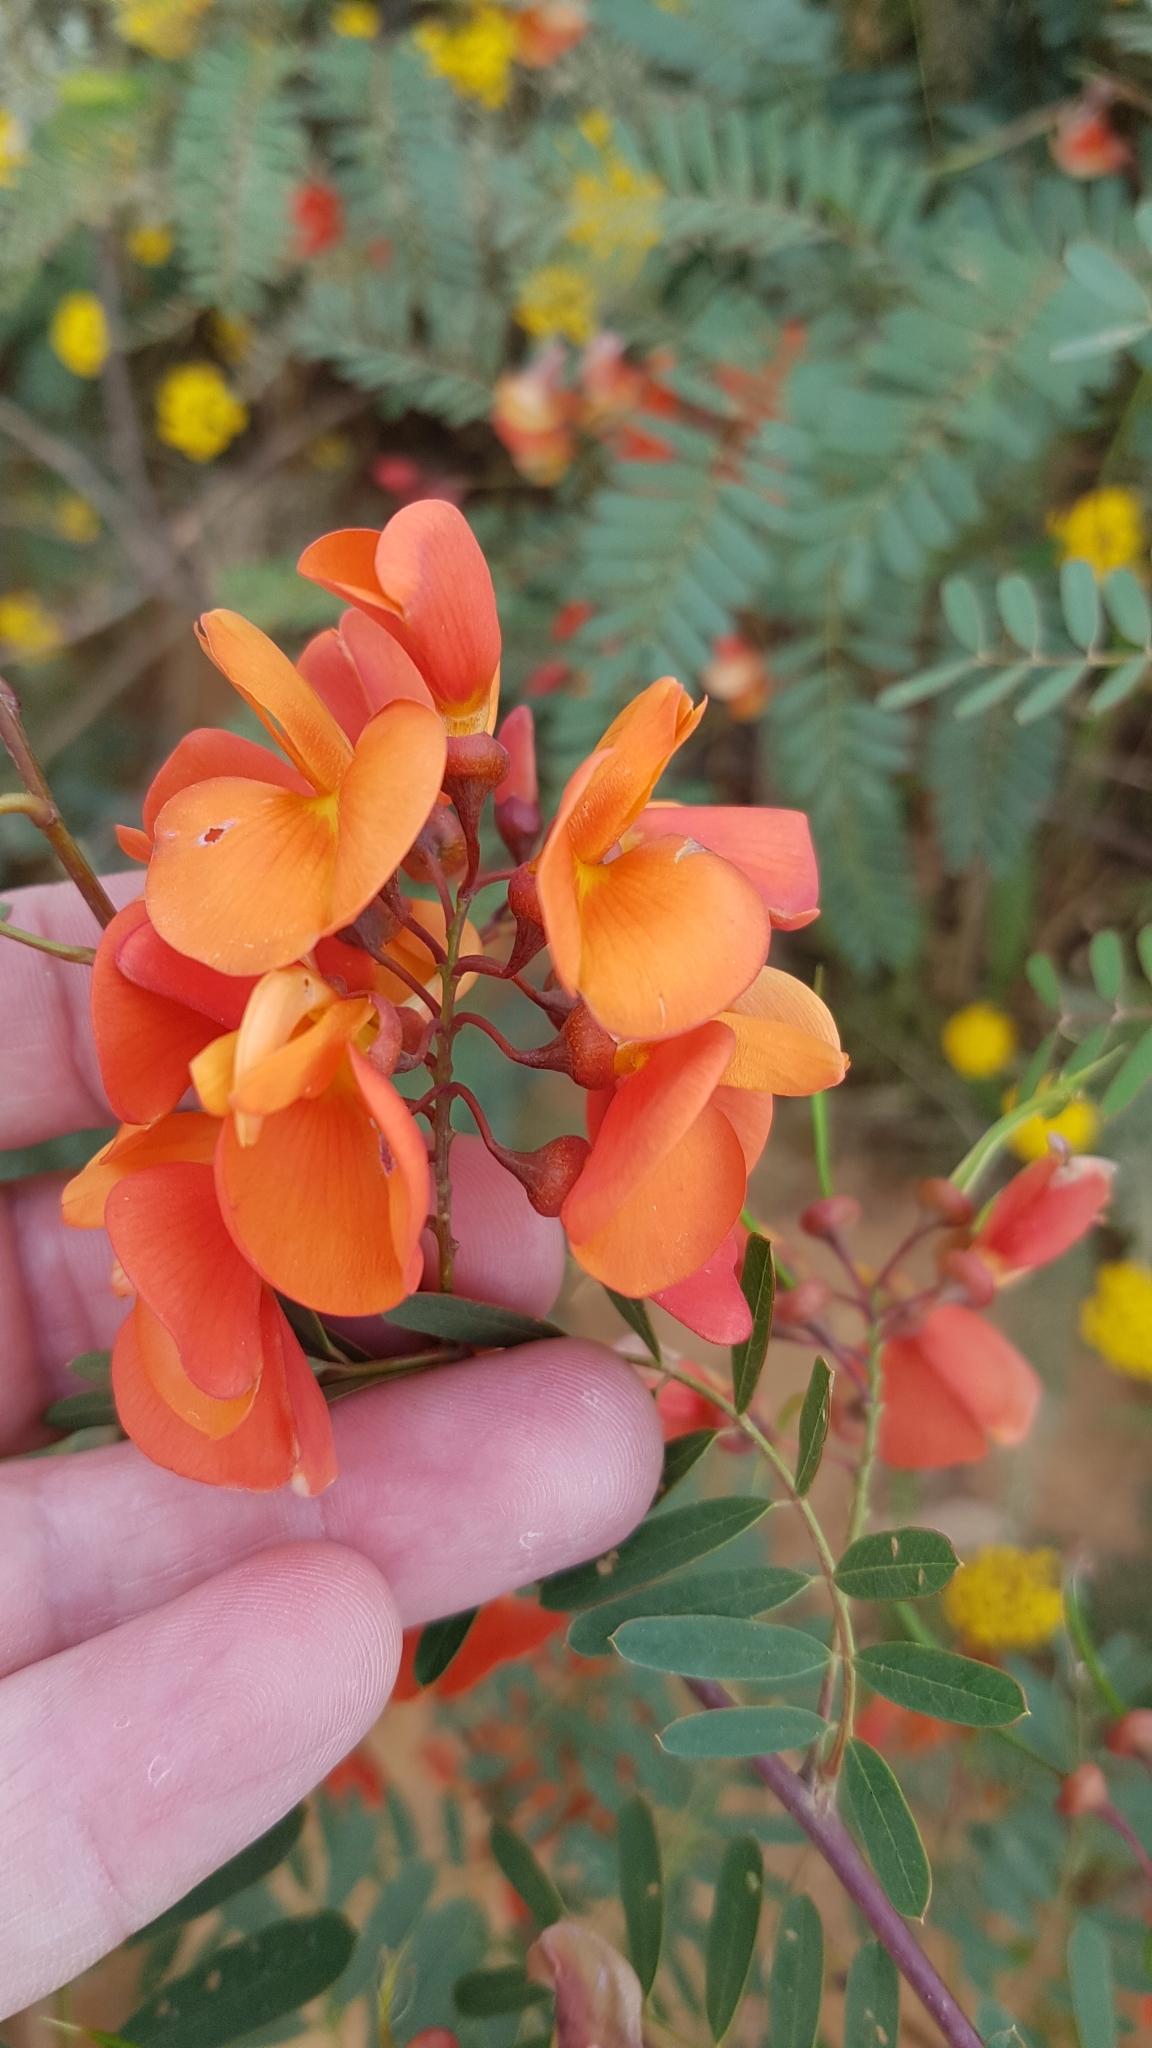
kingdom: Plantae
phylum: Tracheophyta
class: Magnoliopsida
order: Fabales
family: Fabaceae
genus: Sesbania
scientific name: Sesbania punicea
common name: Rattlebox
